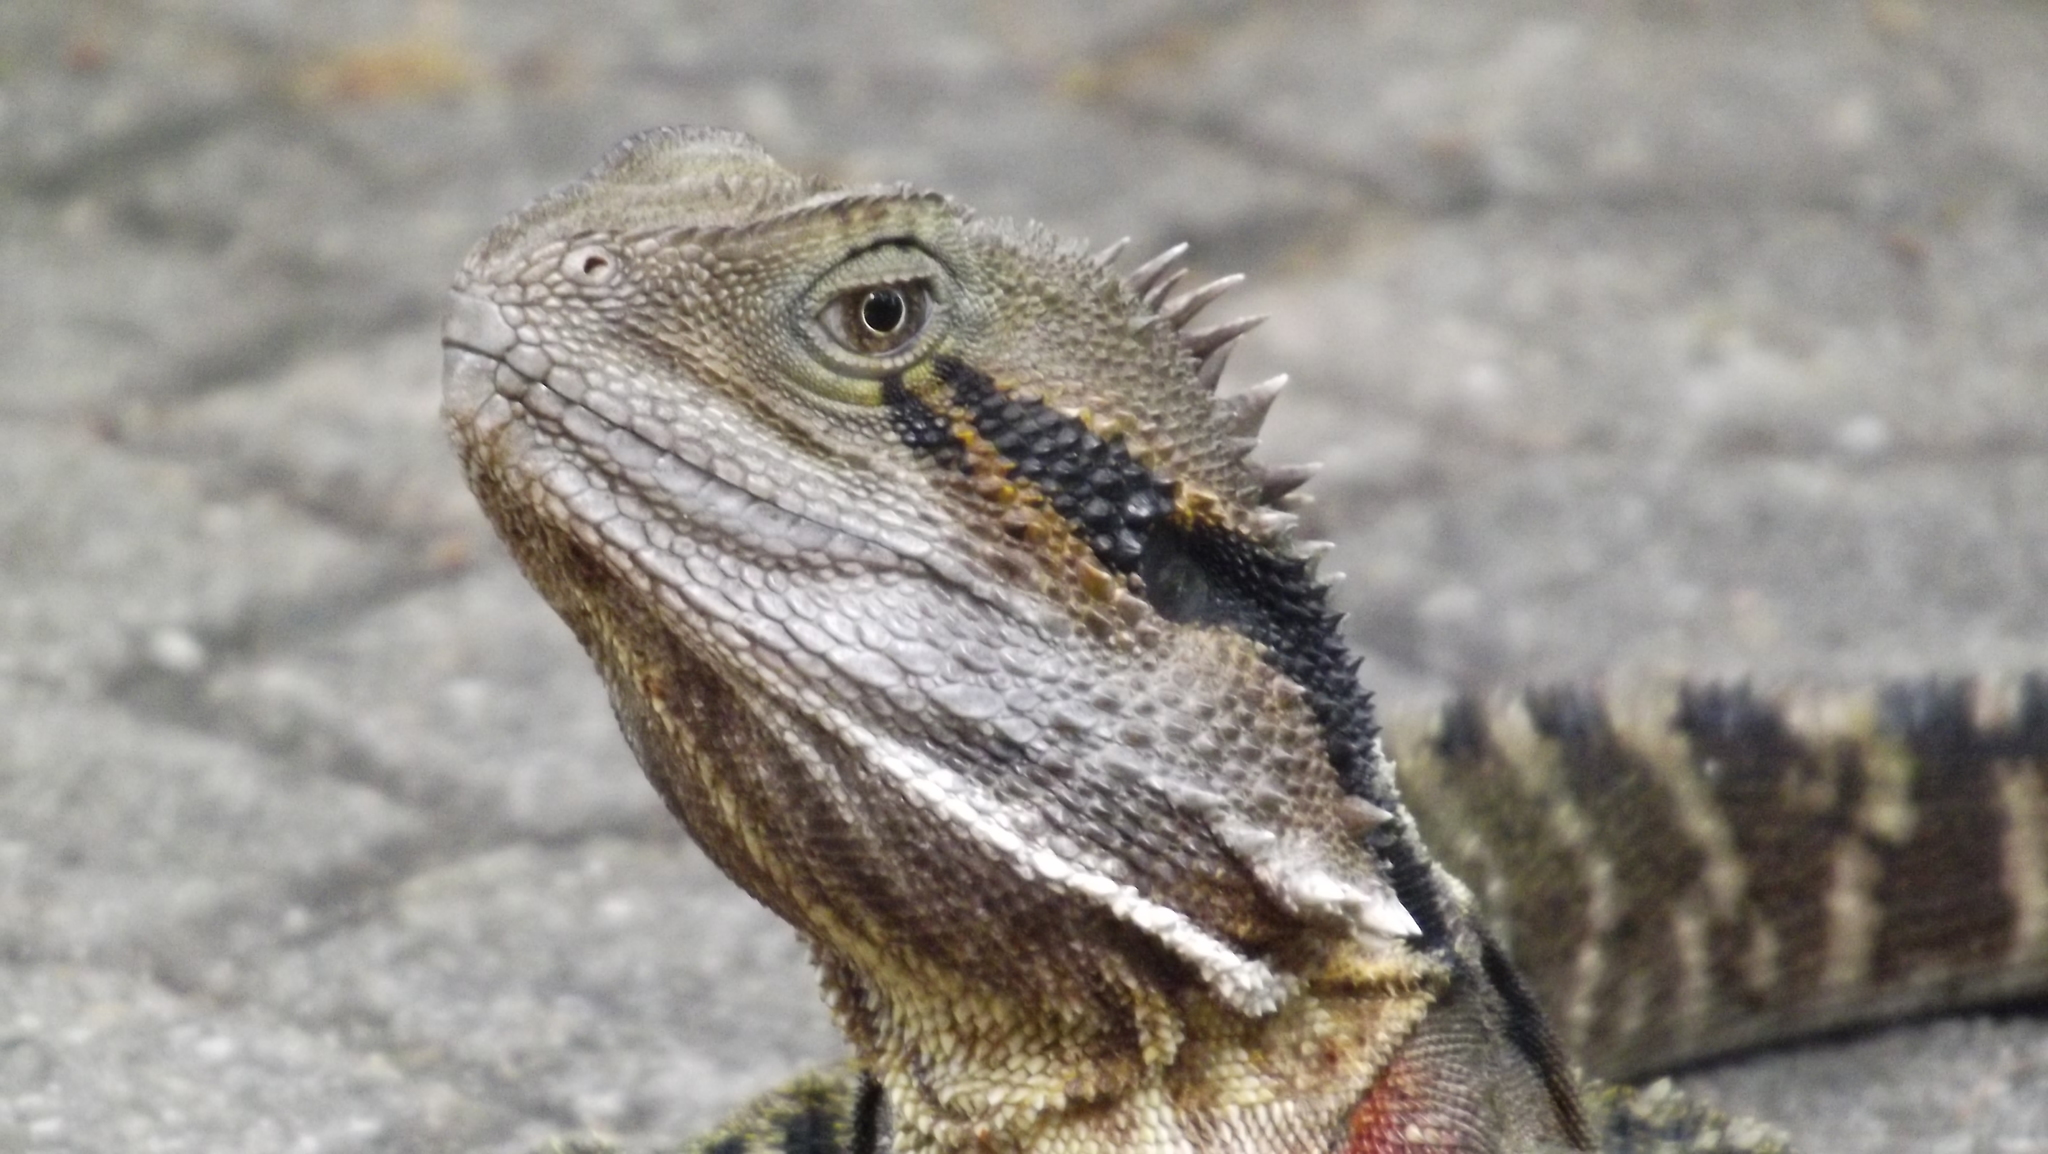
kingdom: Animalia
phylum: Chordata
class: Squamata
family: Agamidae
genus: Intellagama
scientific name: Intellagama lesueurii
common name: Eastern water dragon
